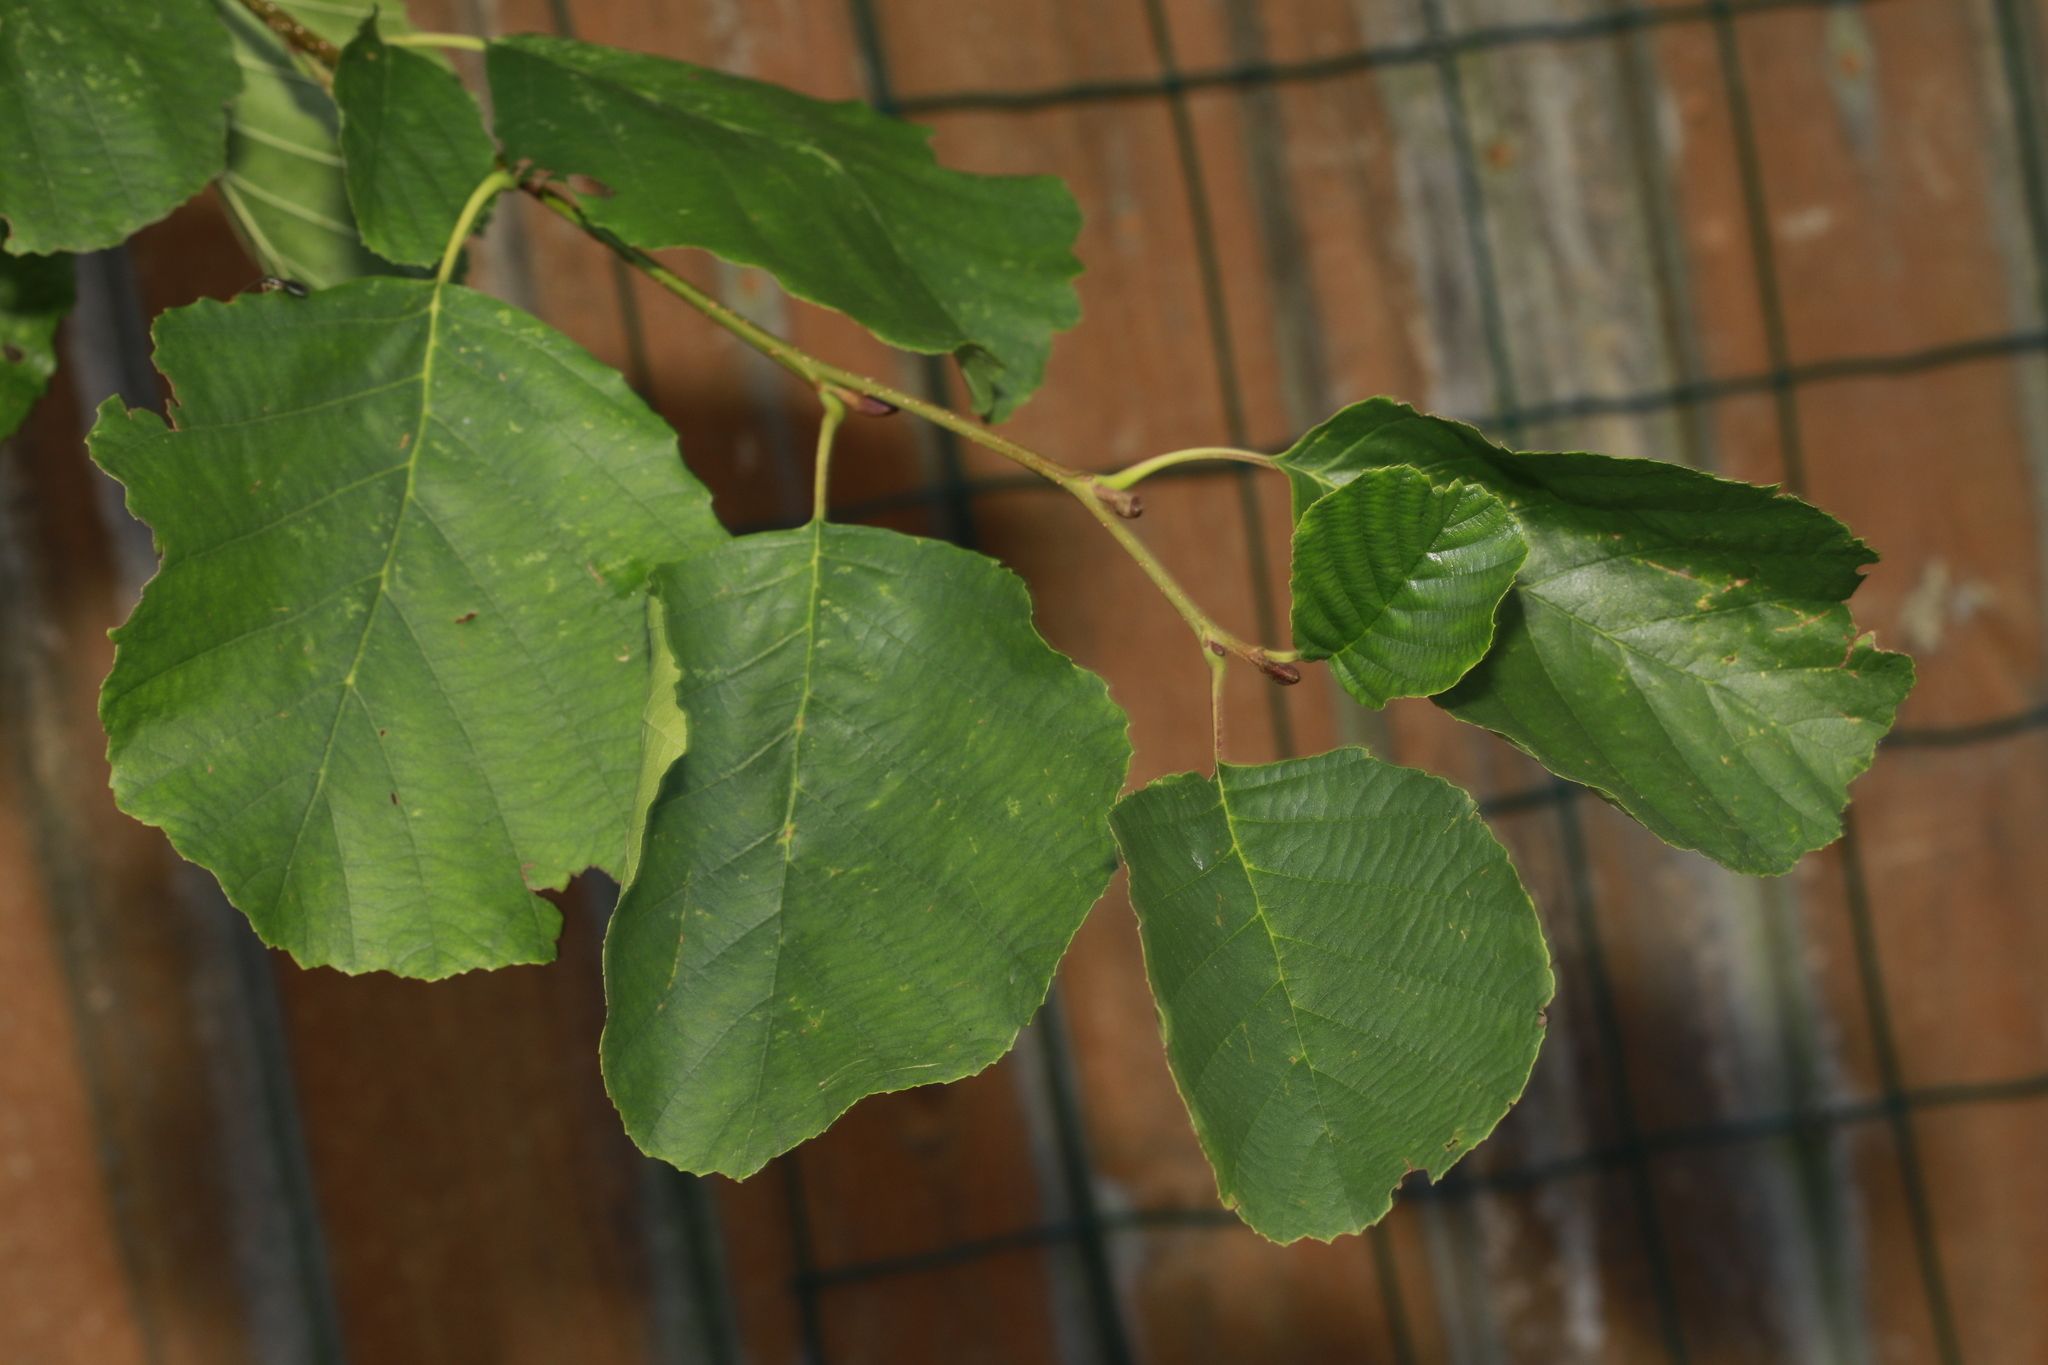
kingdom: Plantae
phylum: Tracheophyta
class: Magnoliopsida
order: Fagales
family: Betulaceae
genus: Alnus
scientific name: Alnus glutinosa
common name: Black alder
